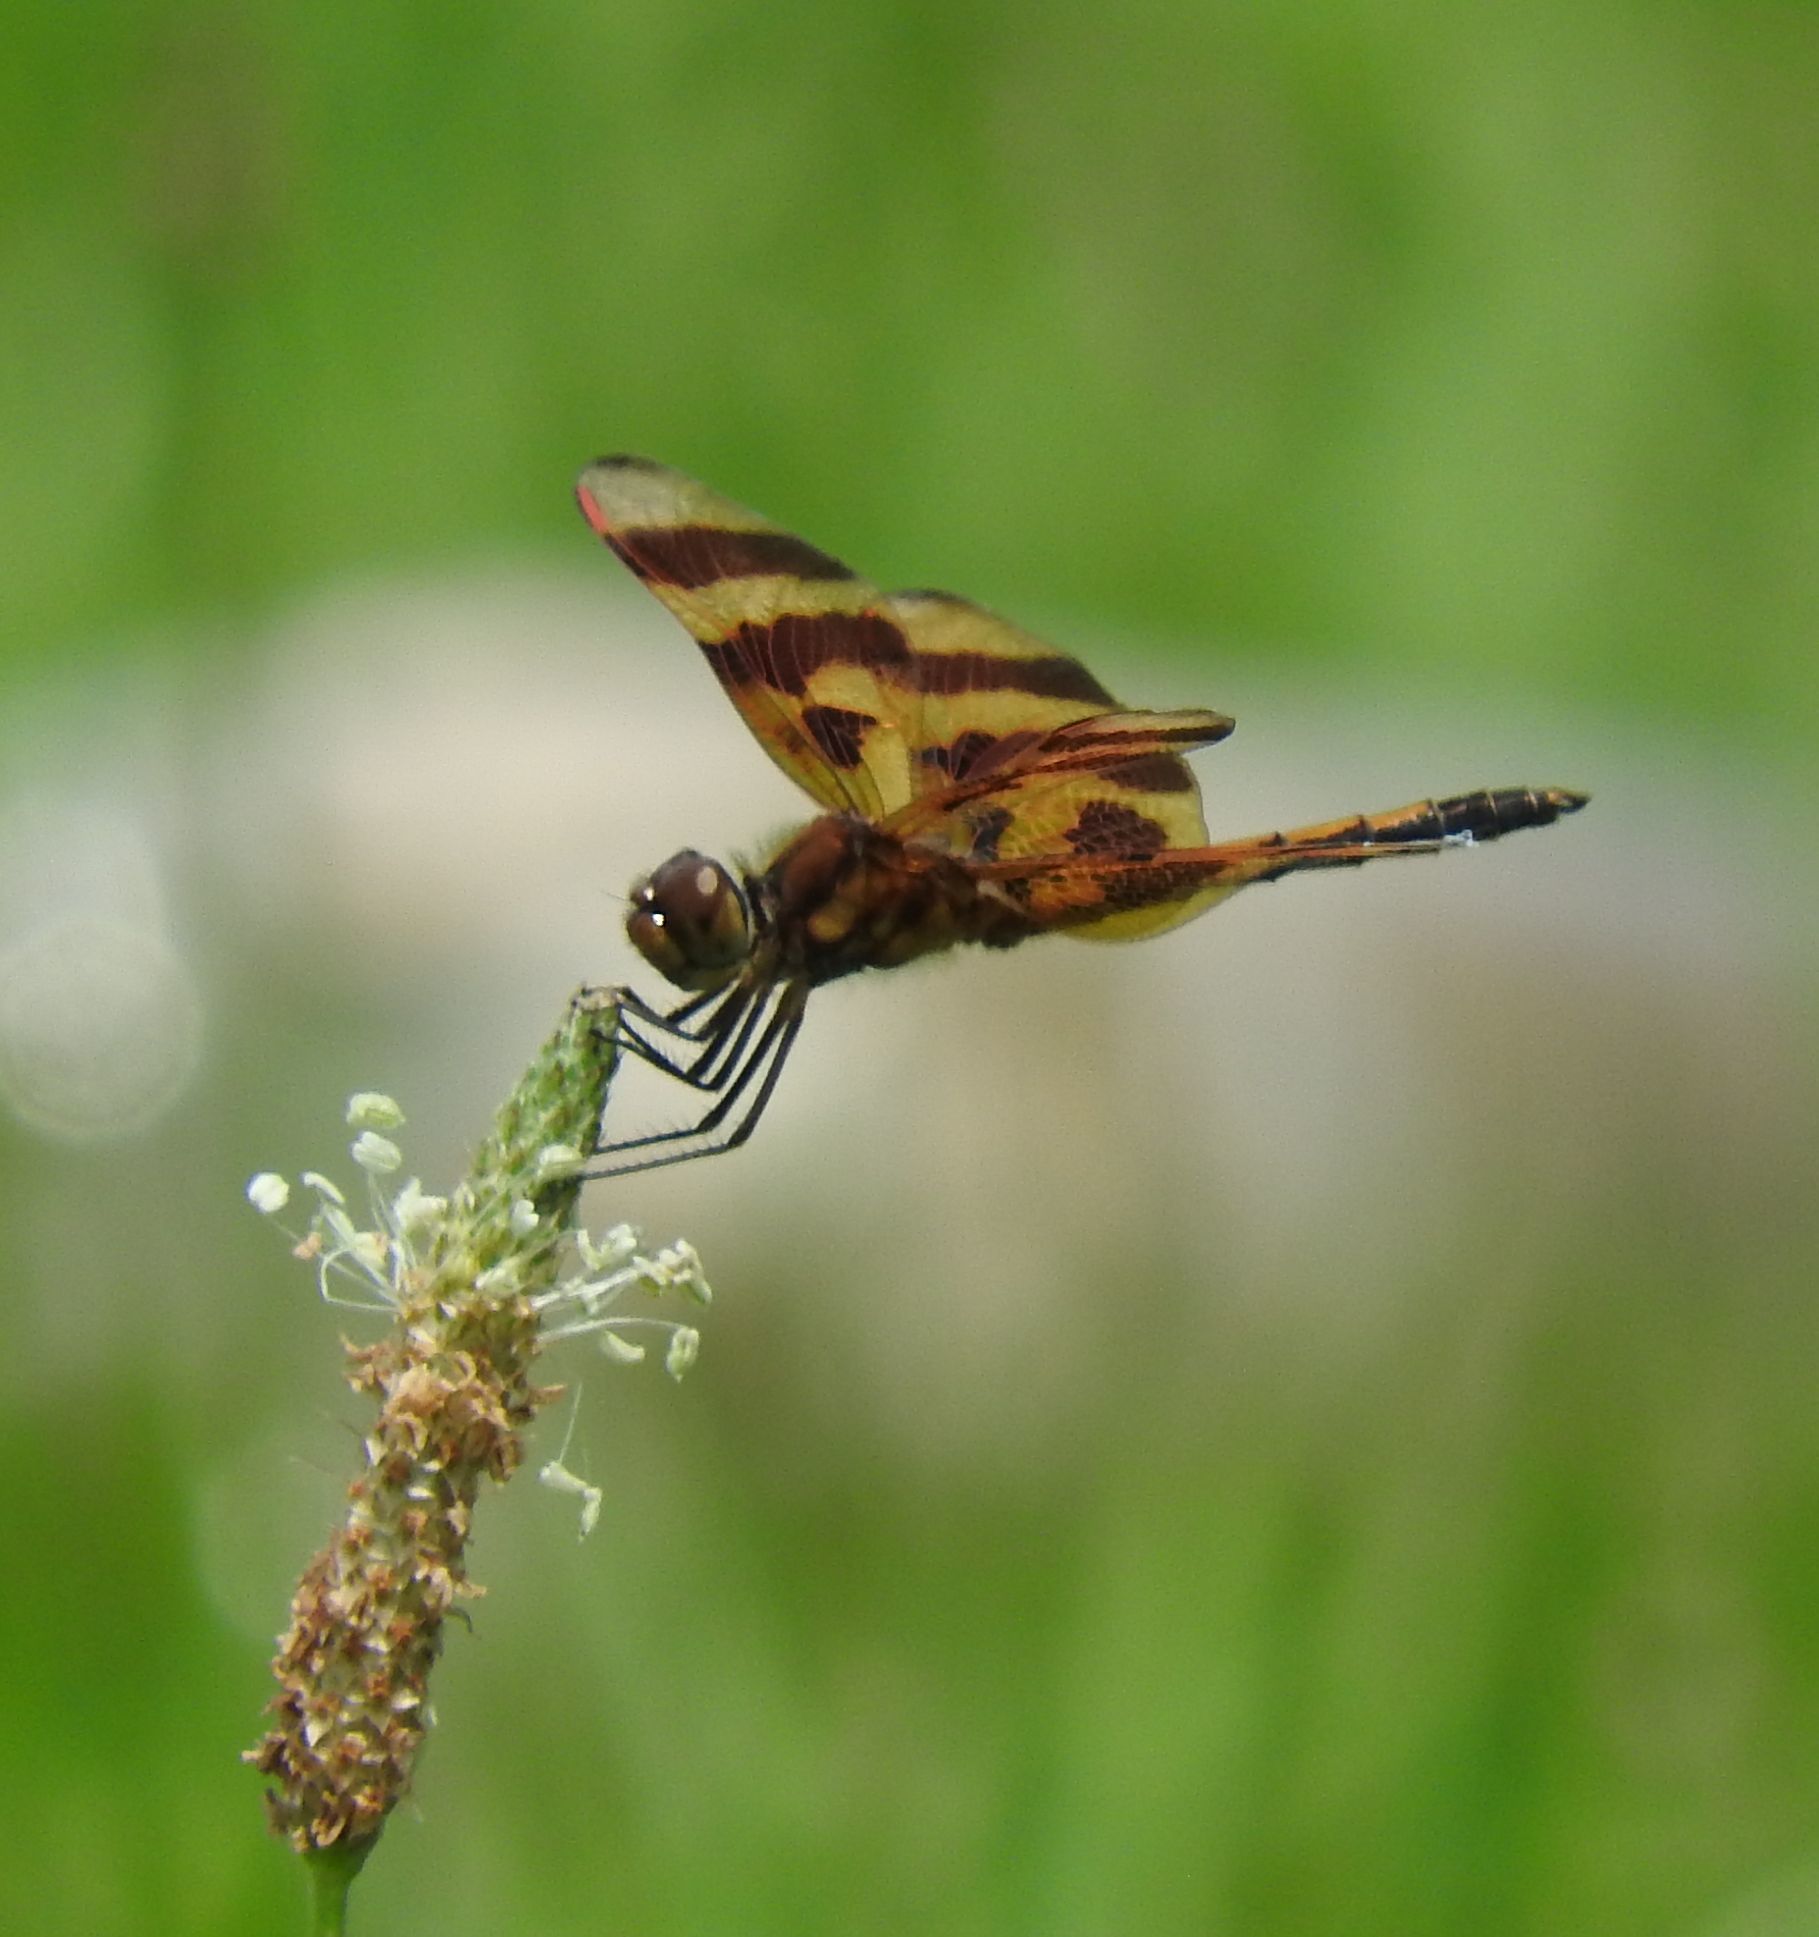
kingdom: Animalia
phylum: Arthropoda
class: Insecta
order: Odonata
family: Libellulidae
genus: Celithemis
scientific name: Celithemis eponina
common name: Halloween pennant
